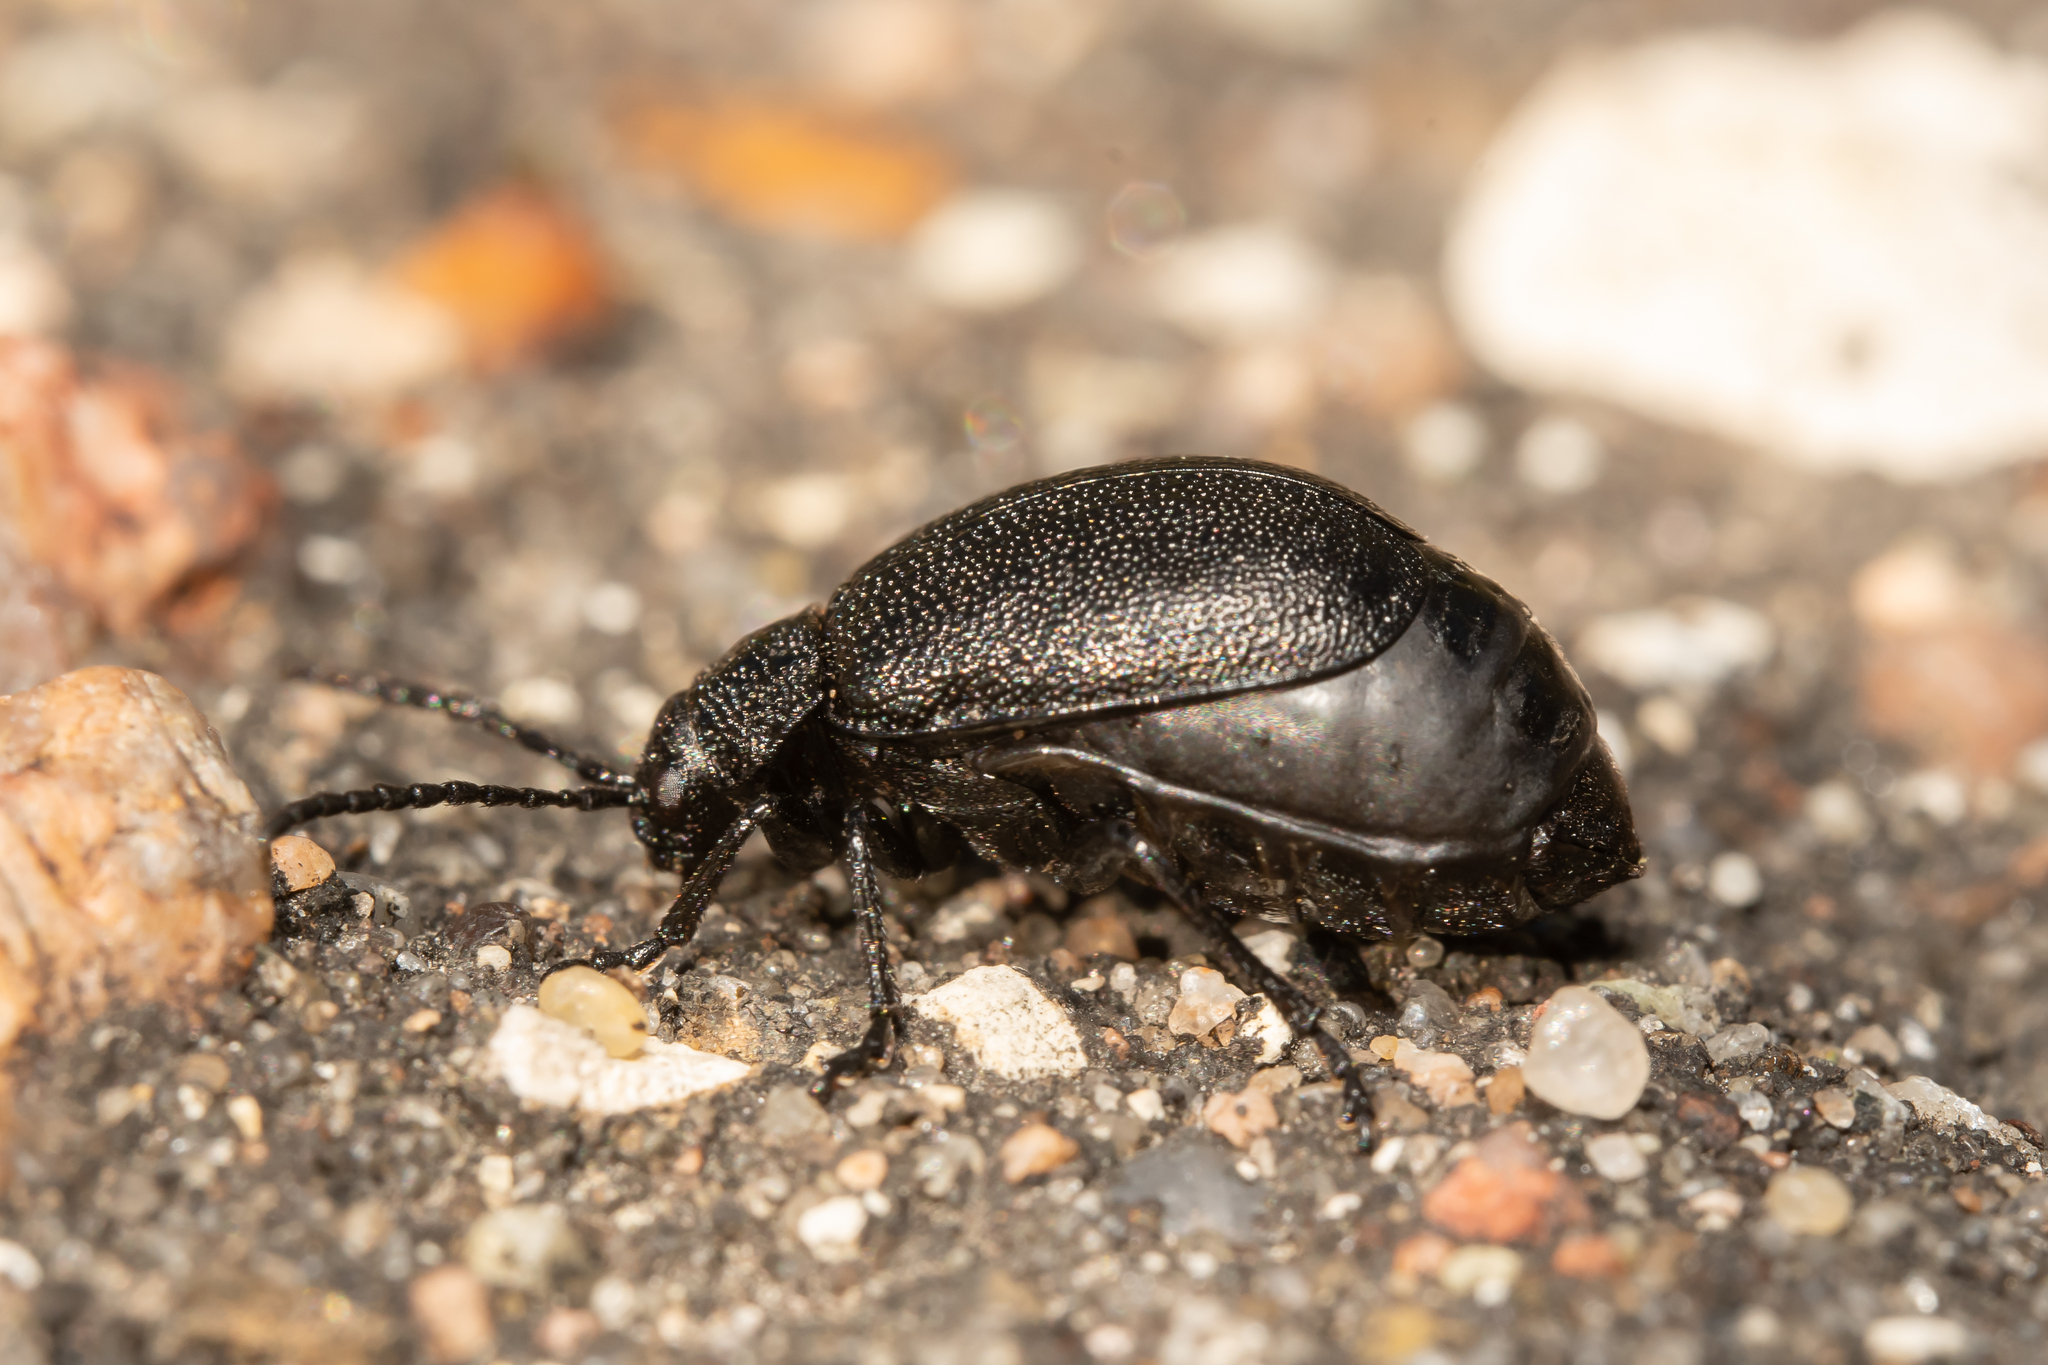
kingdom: Animalia
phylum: Arthropoda
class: Insecta
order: Coleoptera
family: Chrysomelidae
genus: Galeruca
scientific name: Galeruca tanaceti
